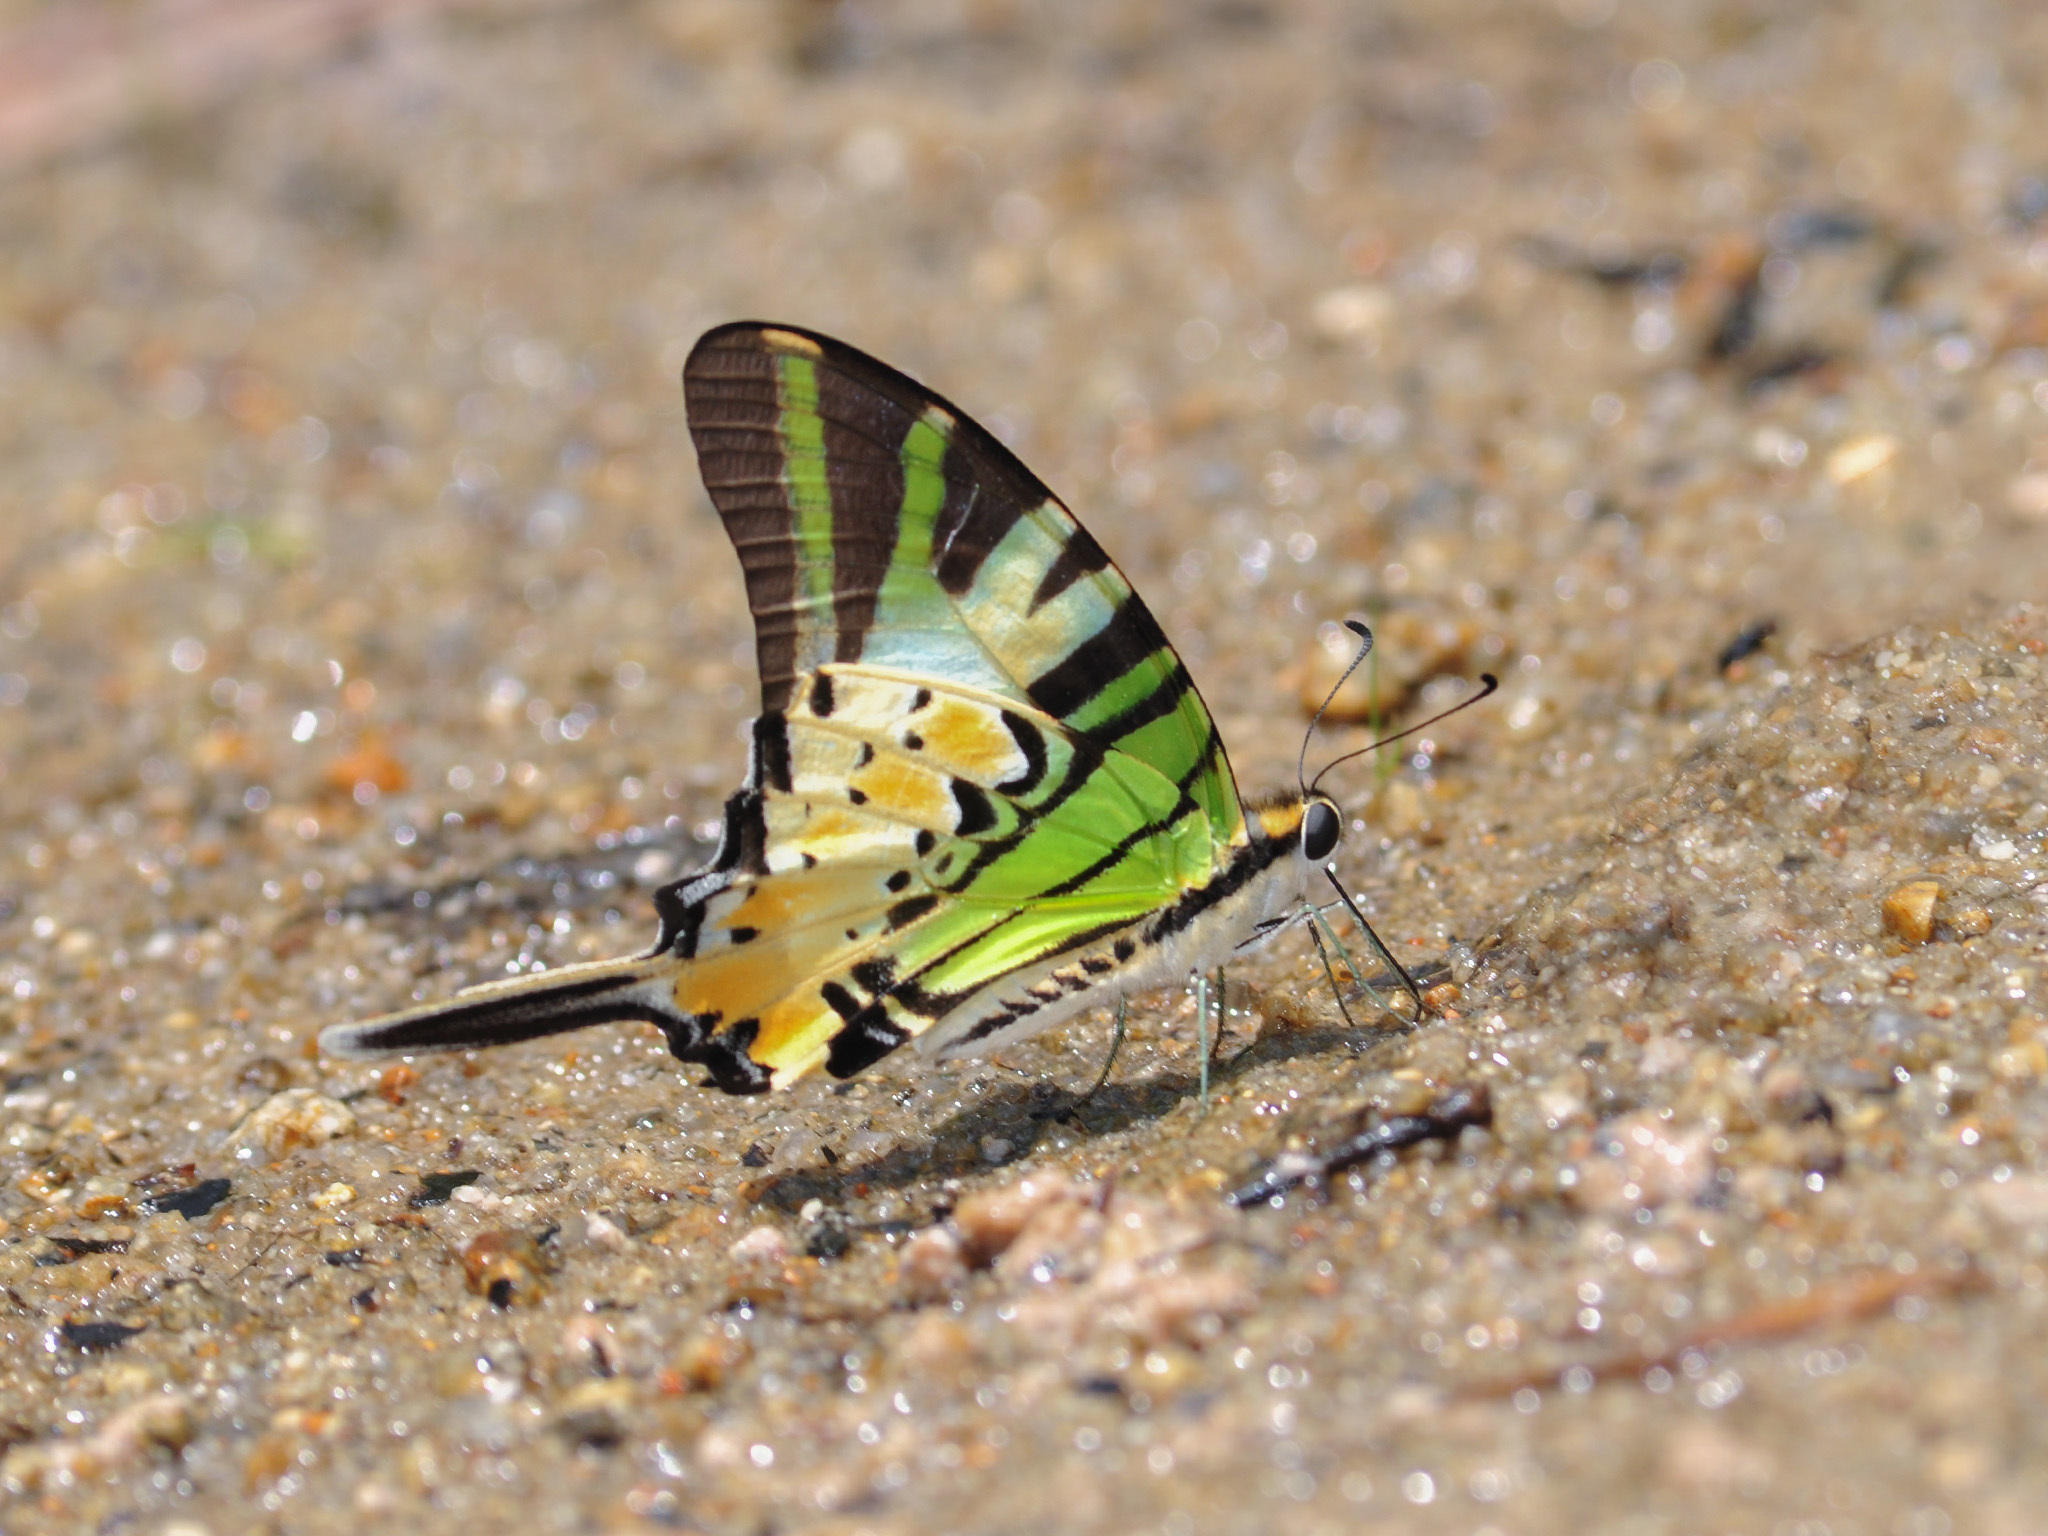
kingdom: Animalia
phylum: Arthropoda
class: Insecta
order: Lepidoptera
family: Papilionidae
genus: Graphium
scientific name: Graphium antiphates
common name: Fivebar swordtail
